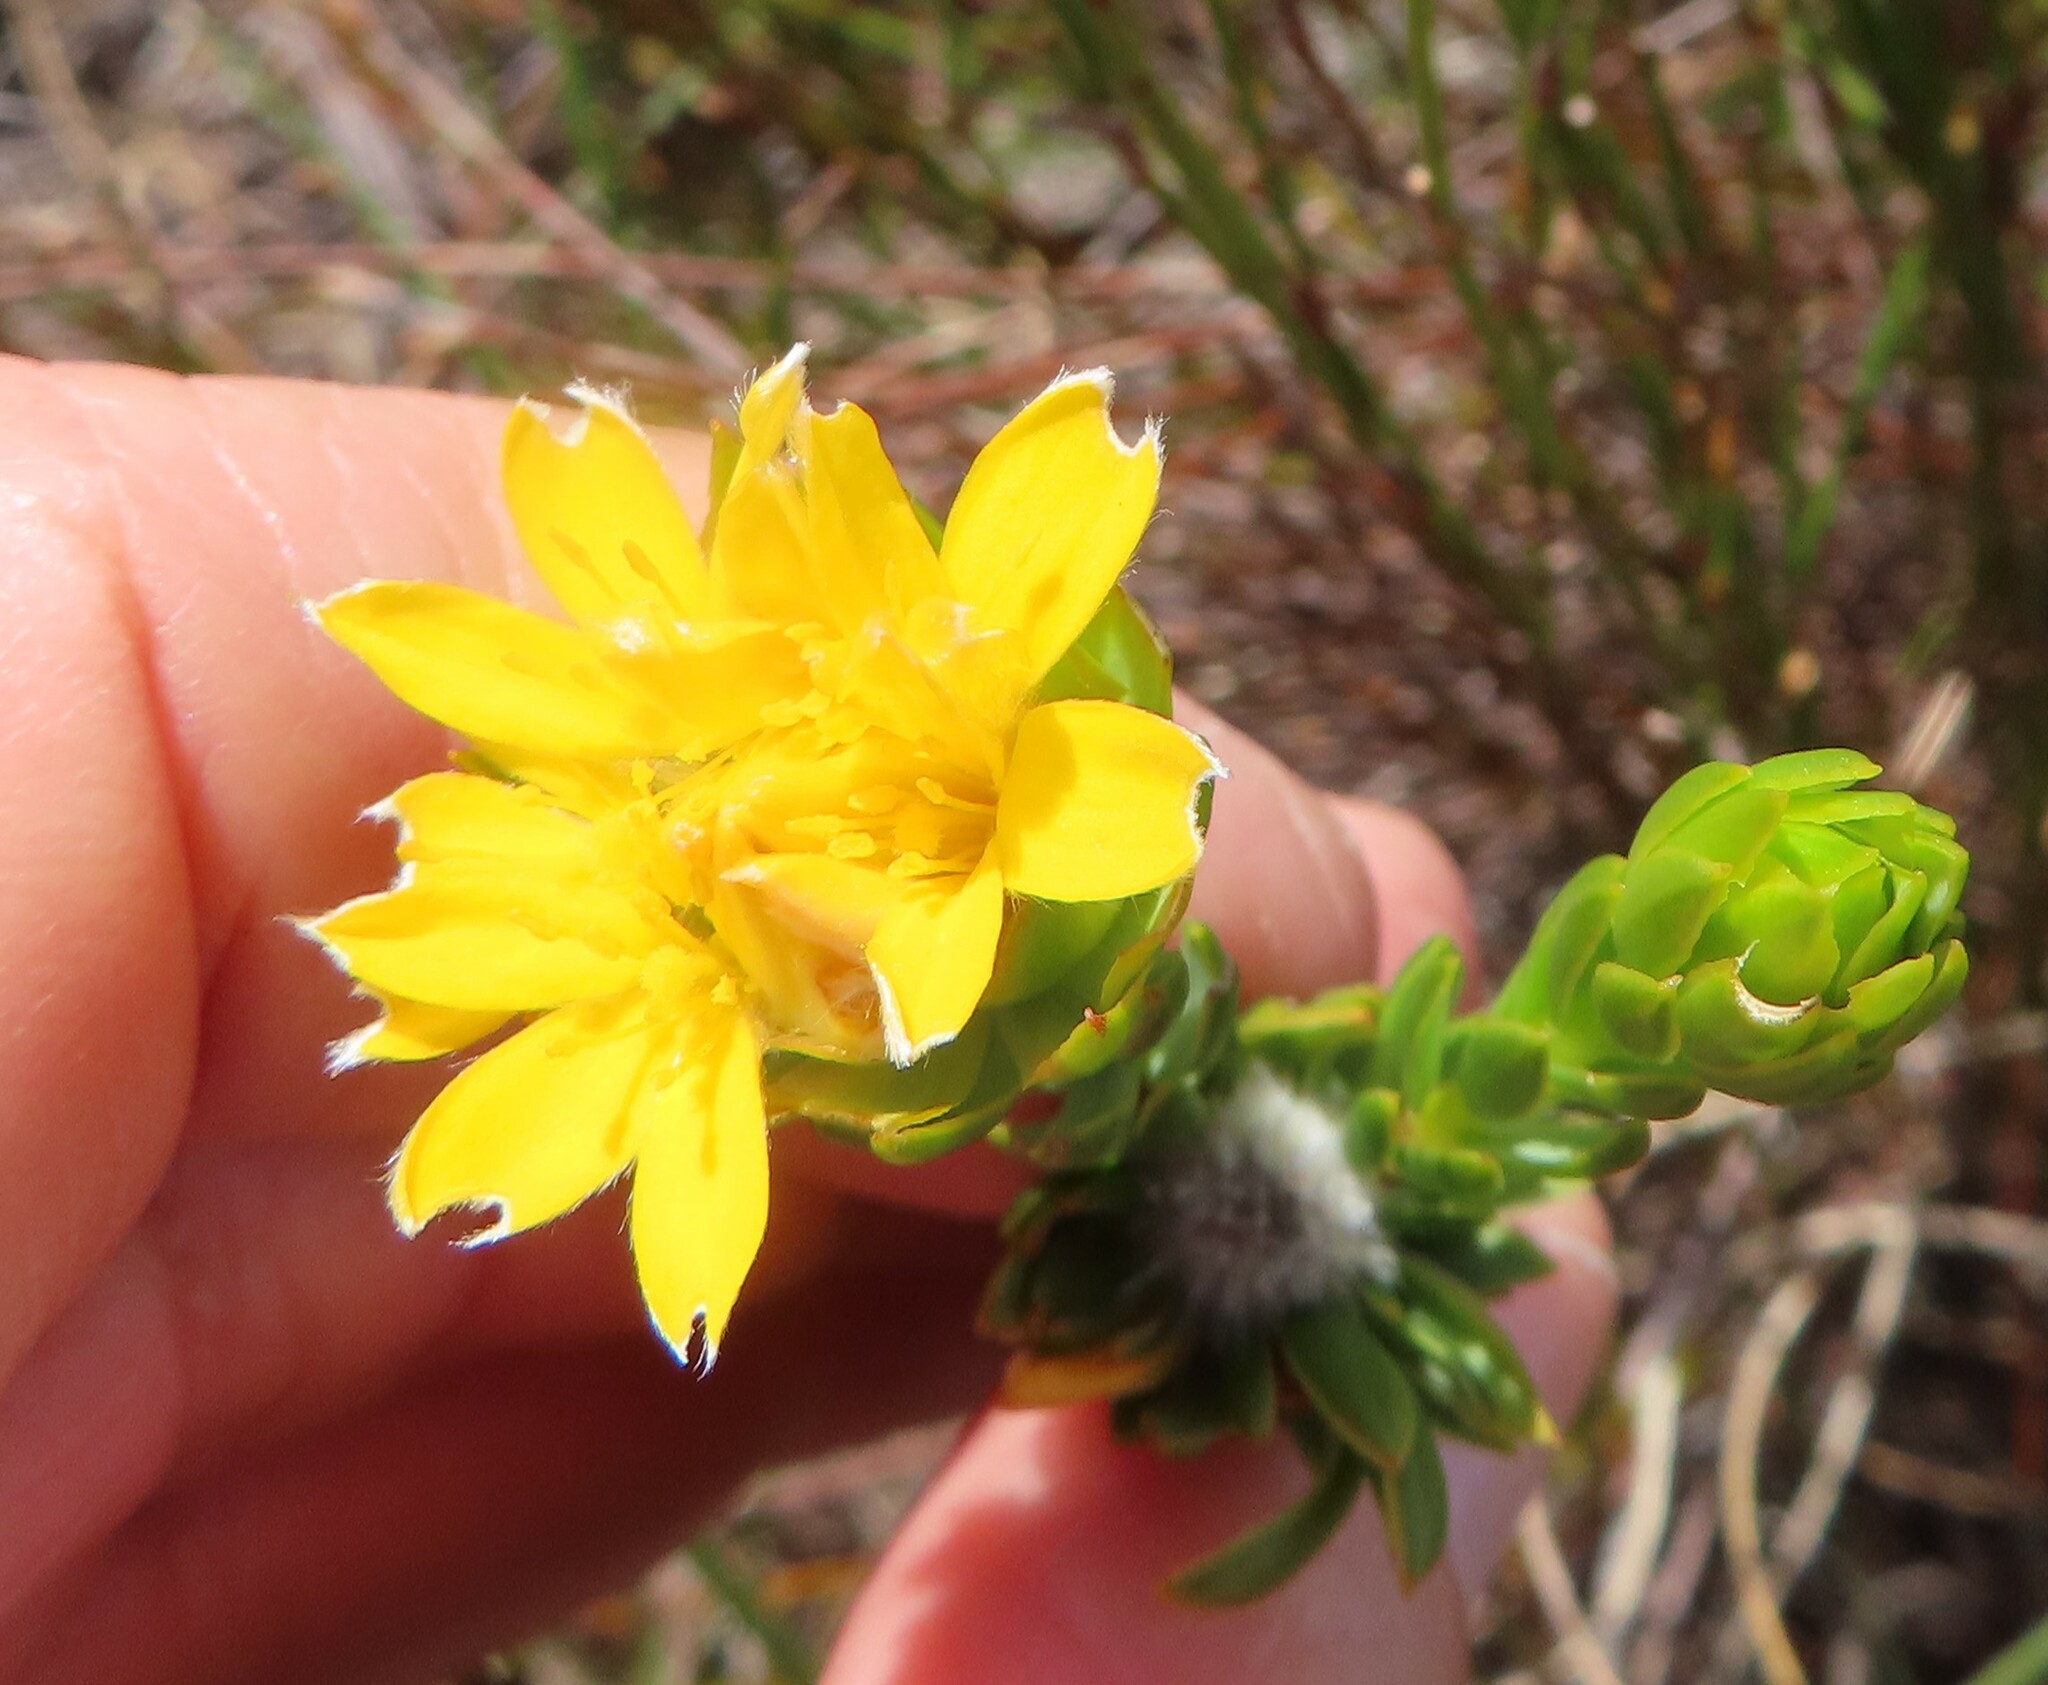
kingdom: Plantae
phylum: Tracheophyta
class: Magnoliopsida
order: Malvales
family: Thymelaeaceae
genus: Lachnaea
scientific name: Lachnaea aurea
